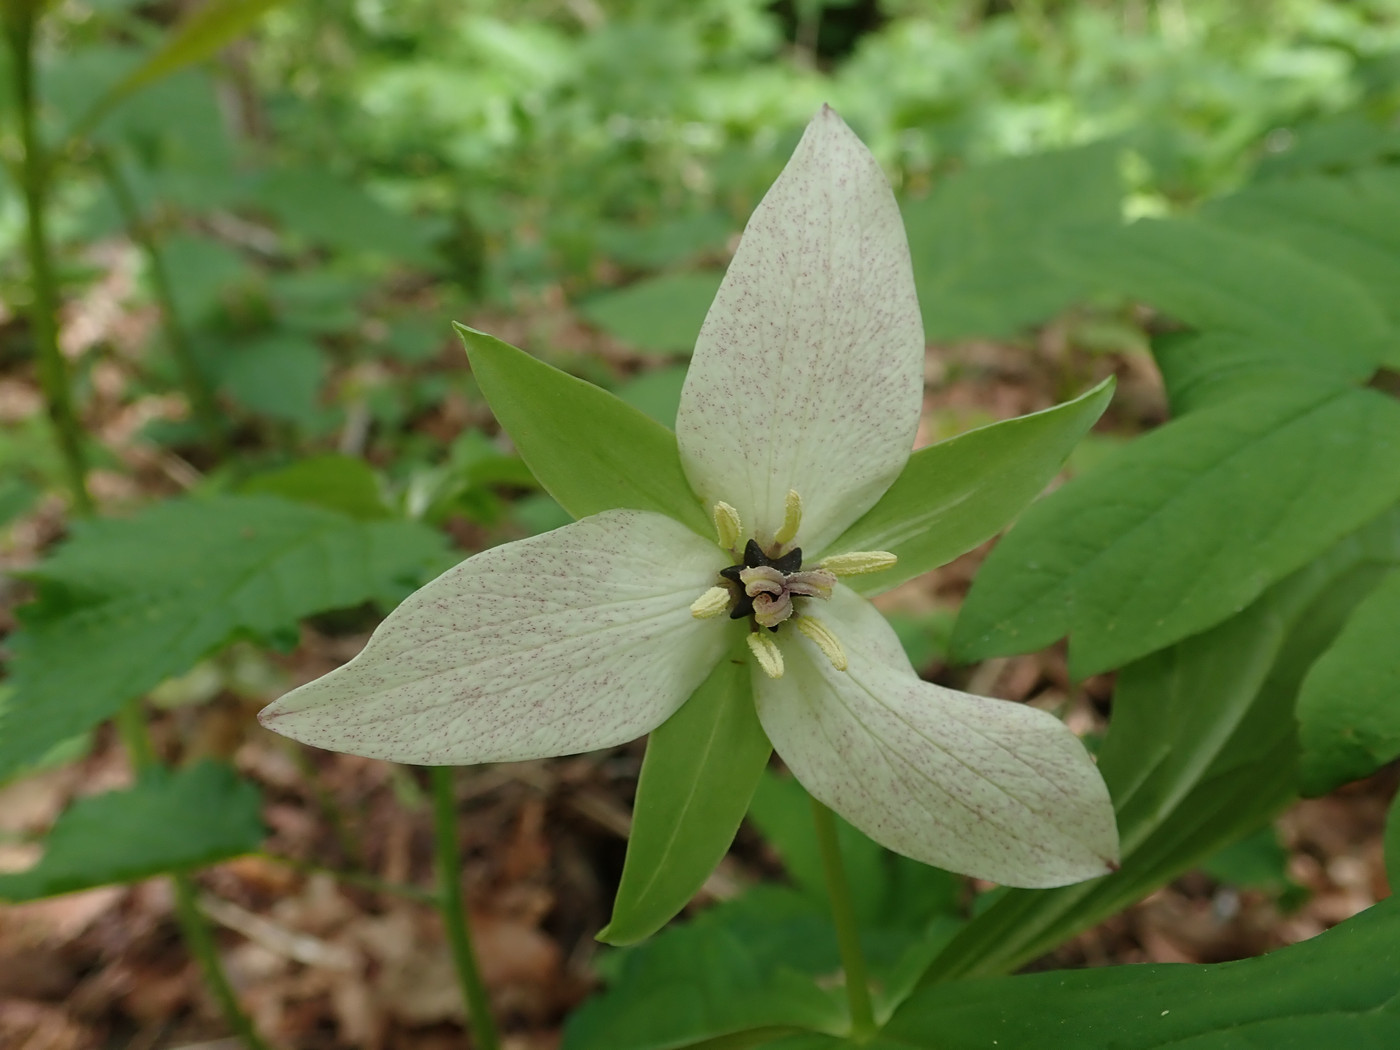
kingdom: Plantae
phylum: Tracheophyta
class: Liliopsida
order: Liliales
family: Melanthiaceae
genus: Trillium
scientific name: Trillium erectum
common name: Purple trillium
